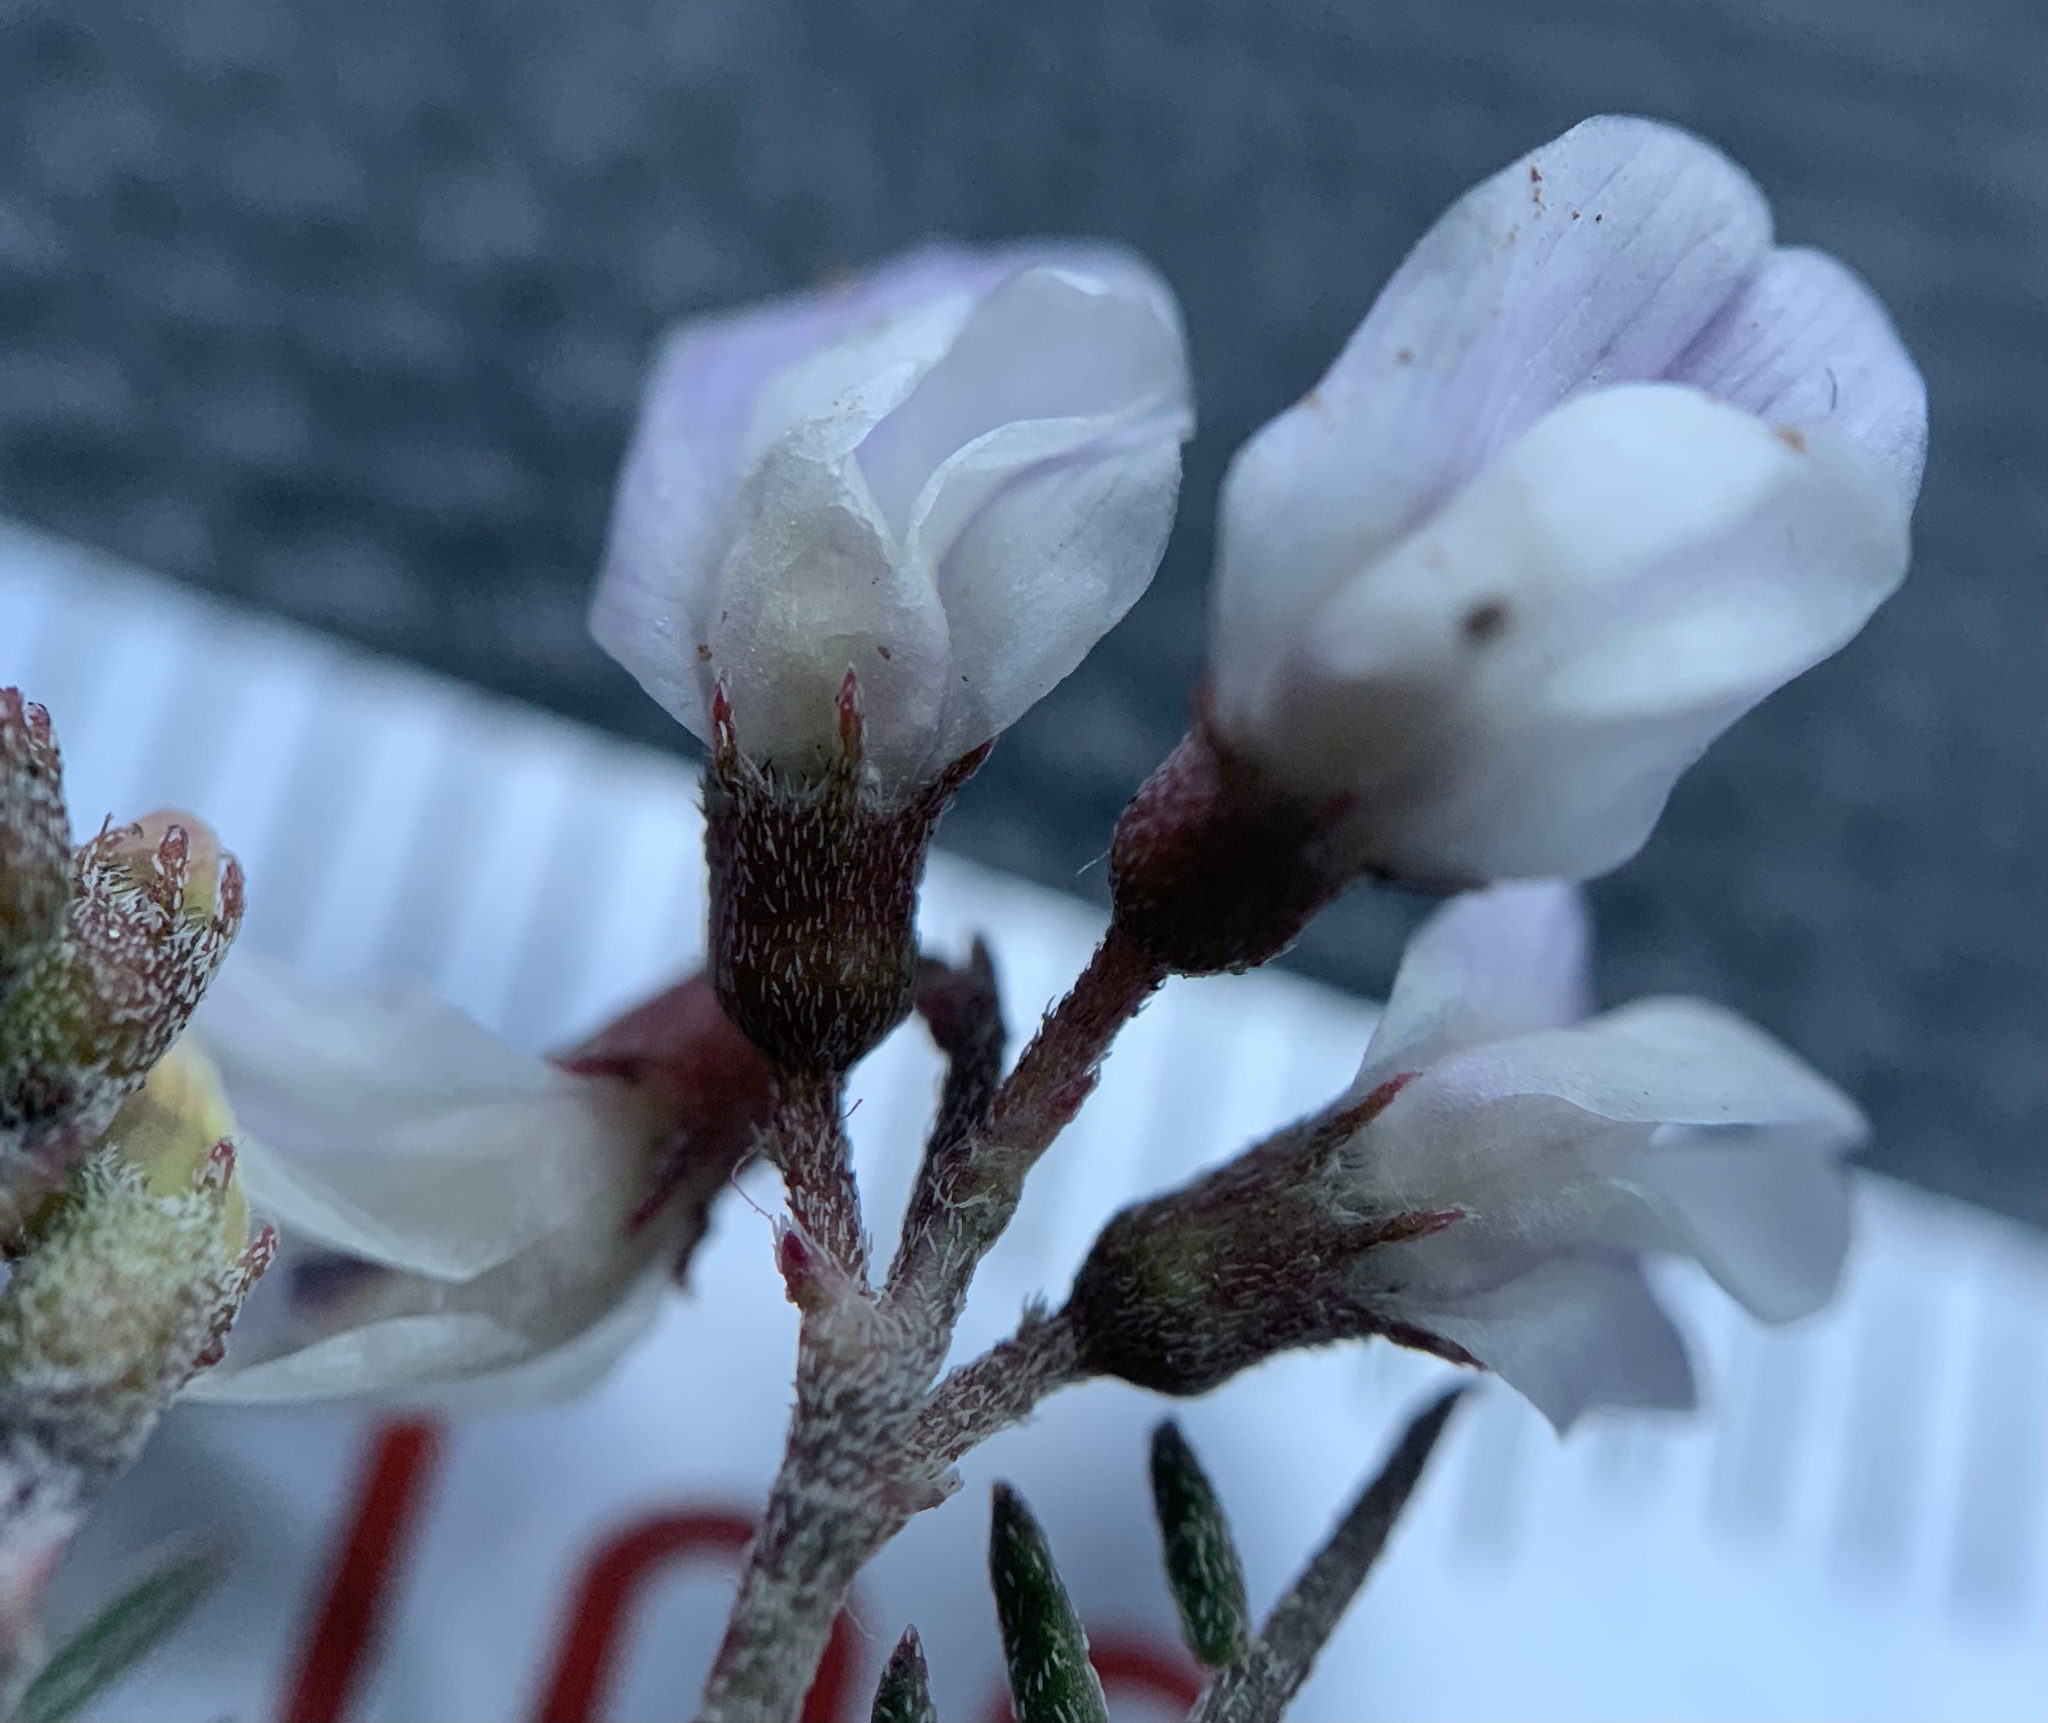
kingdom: Plantae
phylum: Tracheophyta
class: Magnoliopsida
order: Fabales
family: Fabaceae
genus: Astragalus
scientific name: Astragalus jejunus
